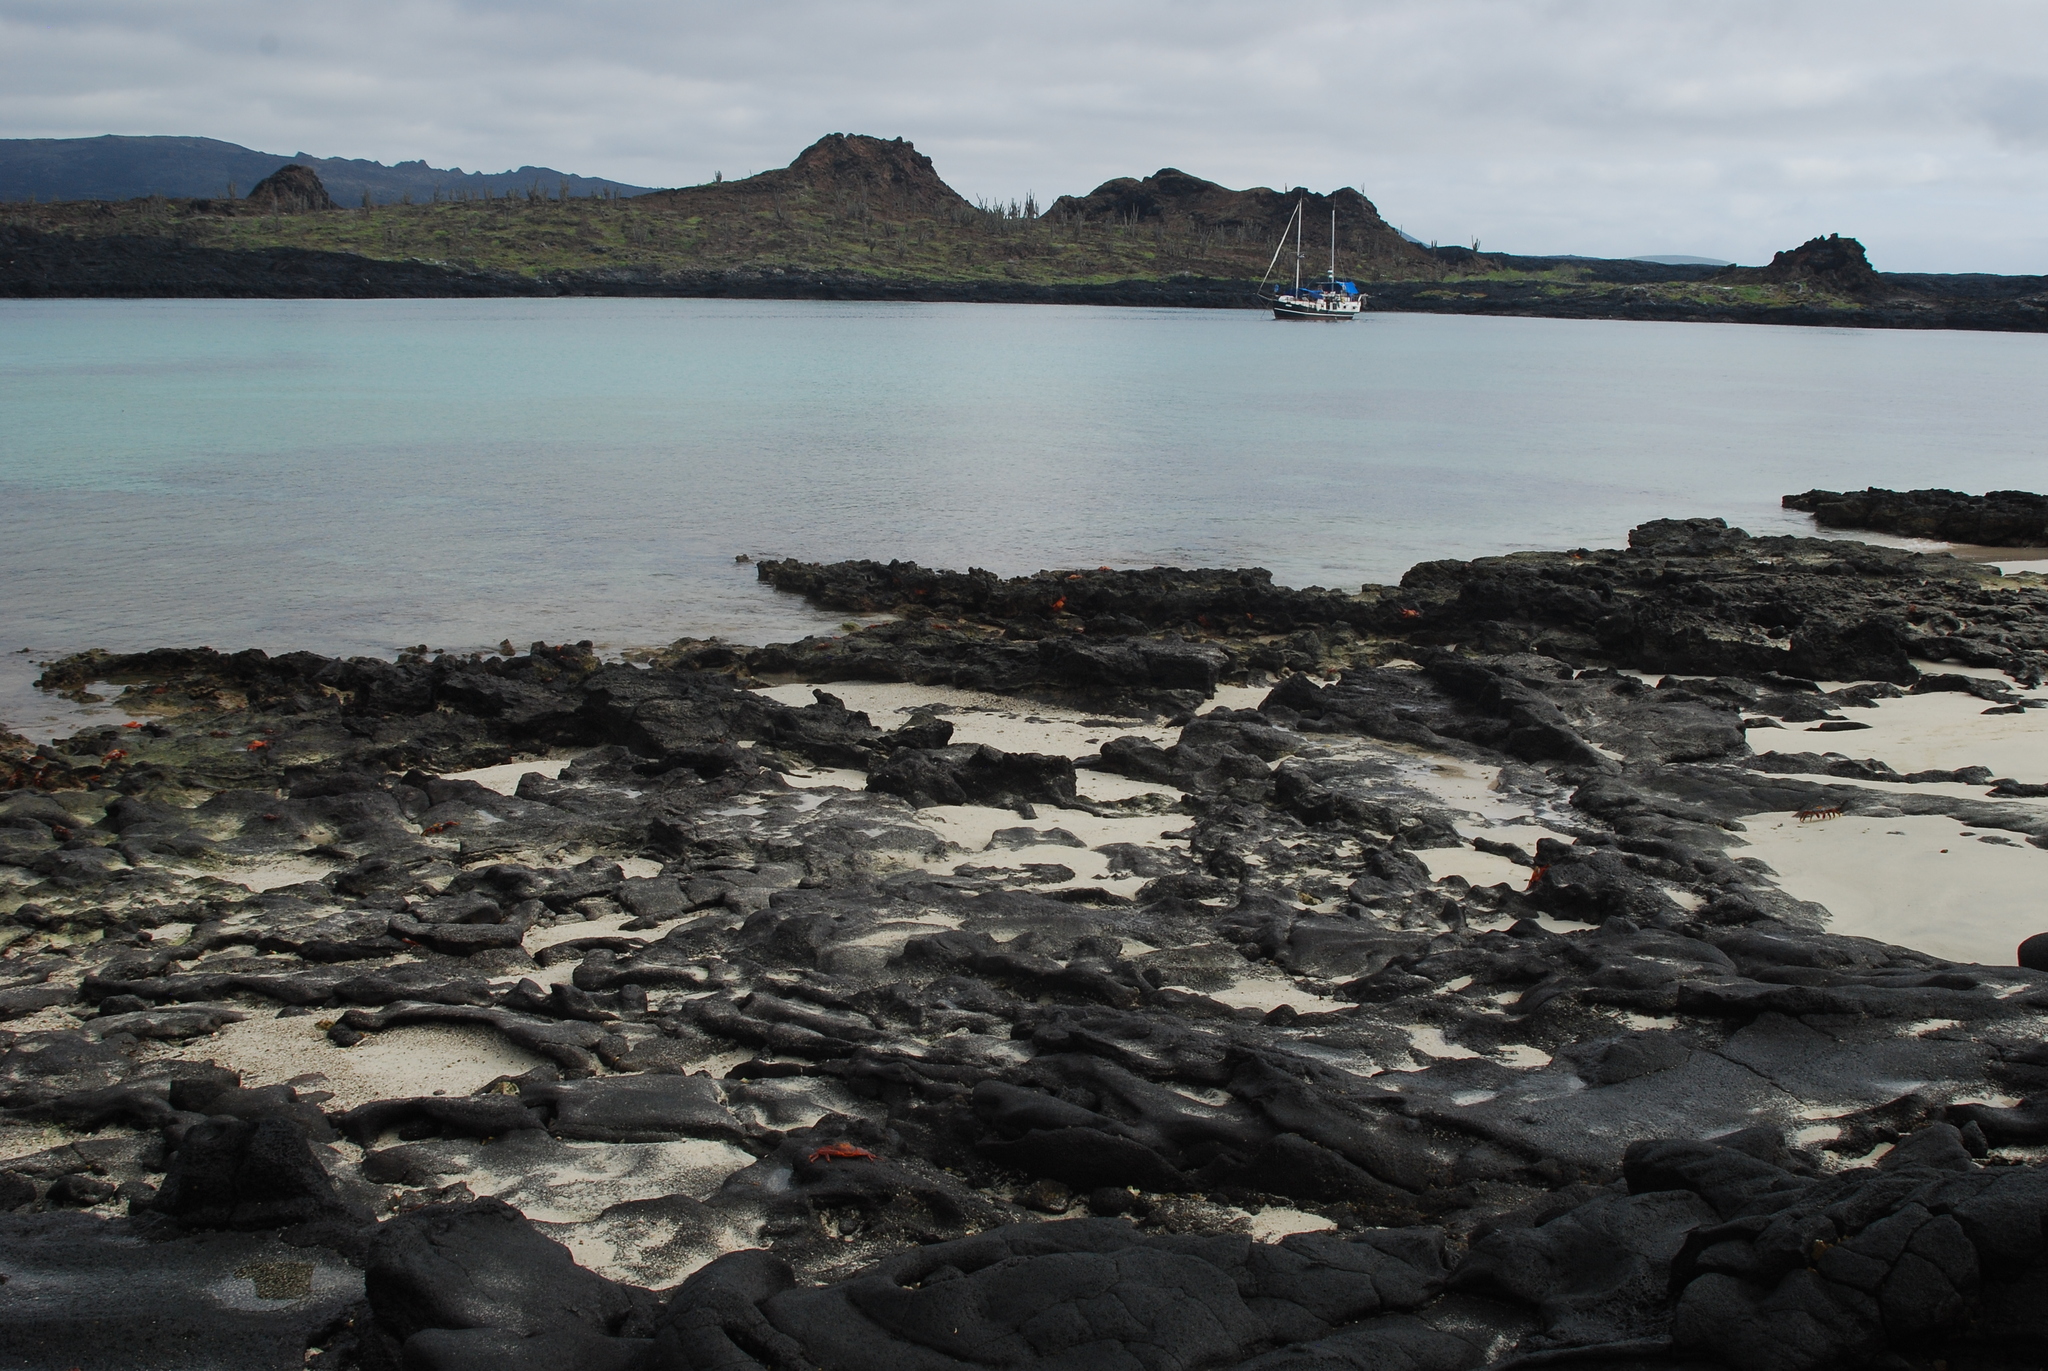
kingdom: Animalia
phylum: Arthropoda
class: Malacostraca
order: Decapoda
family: Grapsidae
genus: Grapsus
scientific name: Grapsus grapsus
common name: Sally lightfoot
